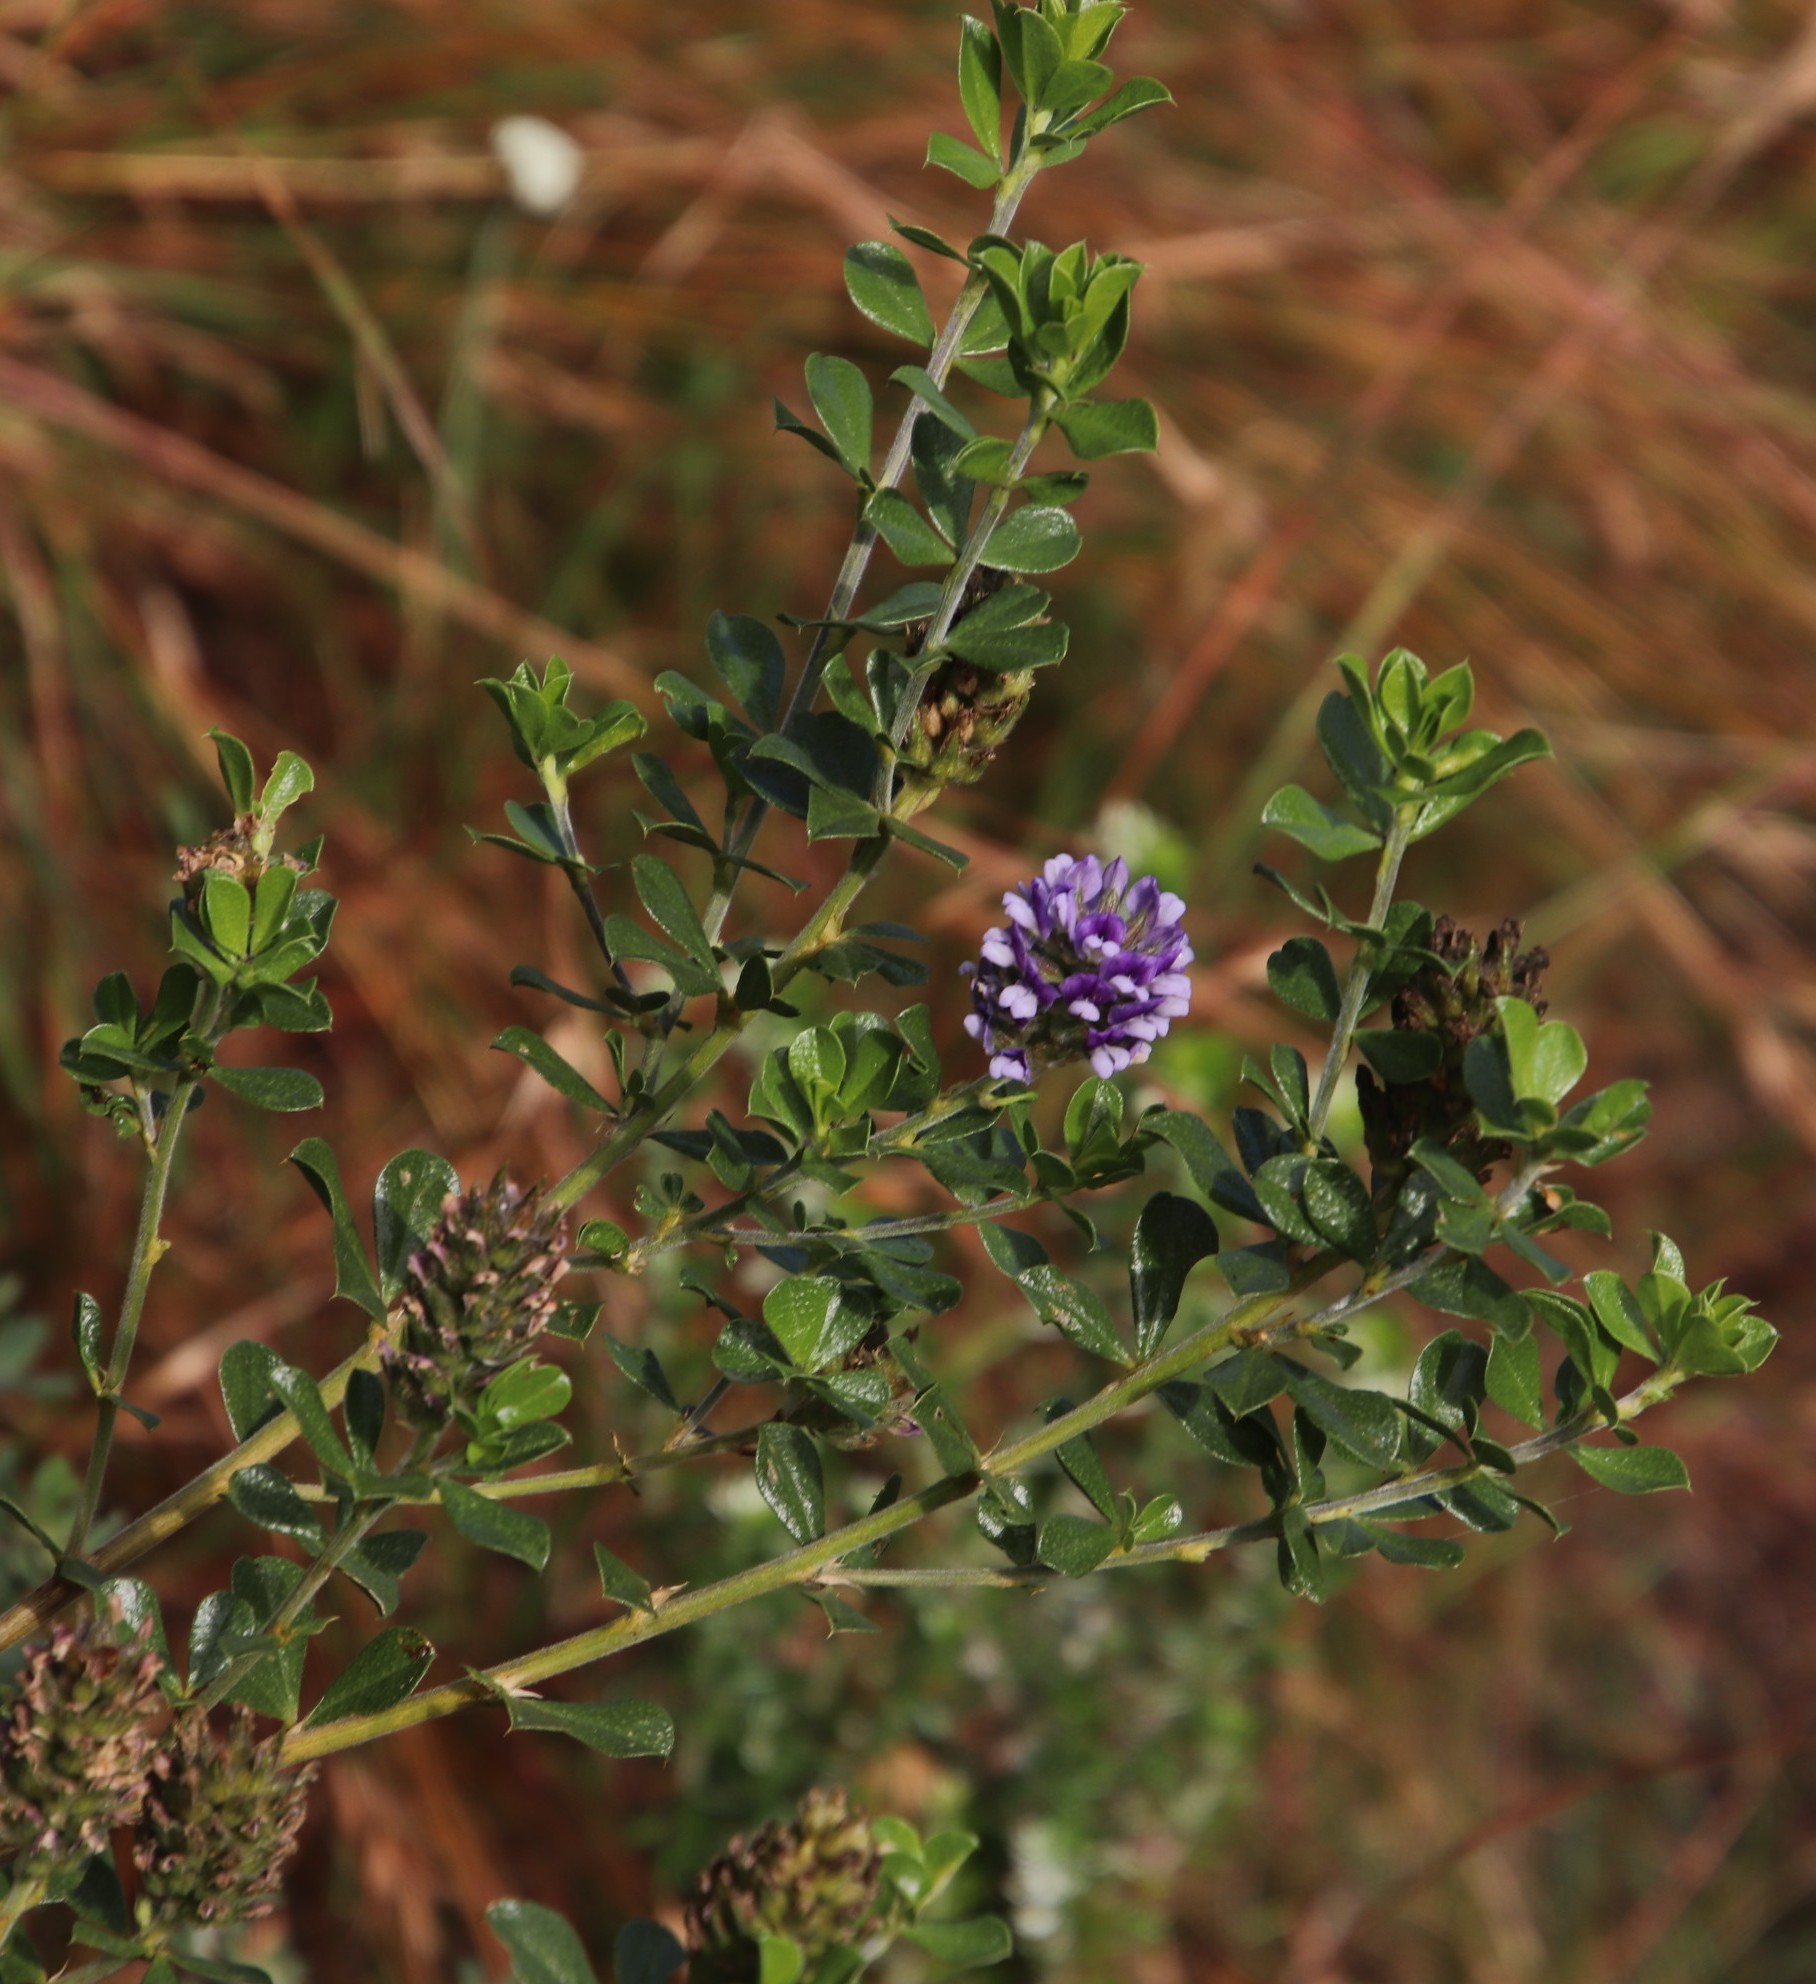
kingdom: Plantae
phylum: Tracheophyta
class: Magnoliopsida
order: Fabales
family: Fabaceae
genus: Psoralea
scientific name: Psoralea bracteolata
